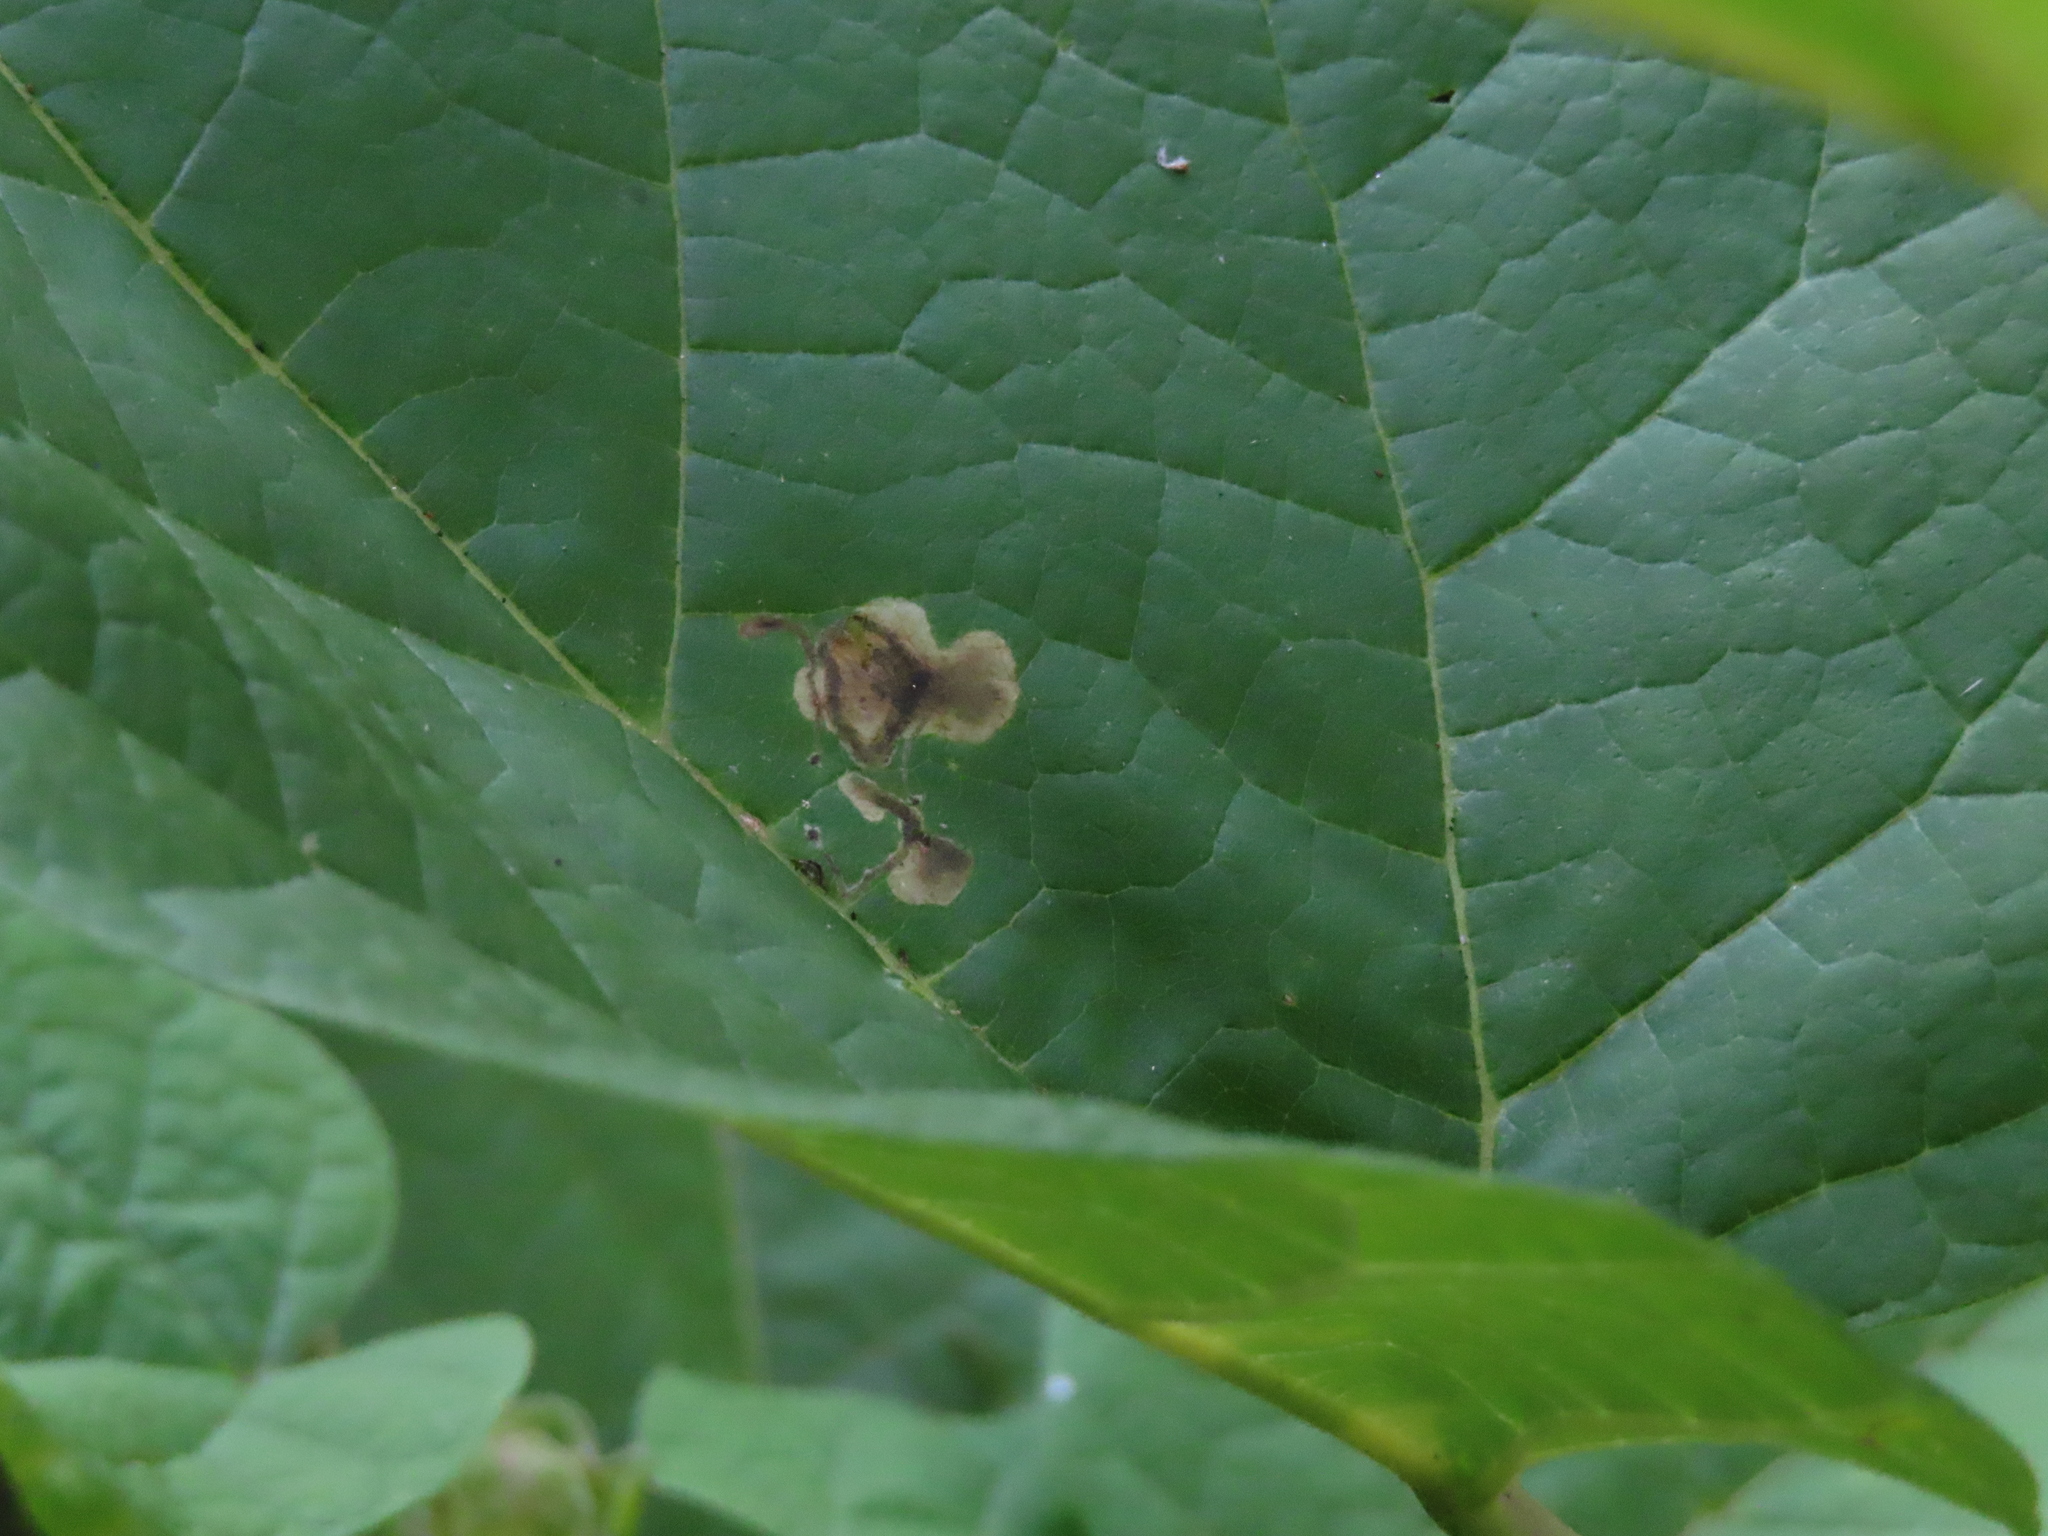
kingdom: Animalia
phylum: Arthropoda
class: Insecta
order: Diptera
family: Agromyzidae
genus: Amauromyza
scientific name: Amauromyza pleuralis
